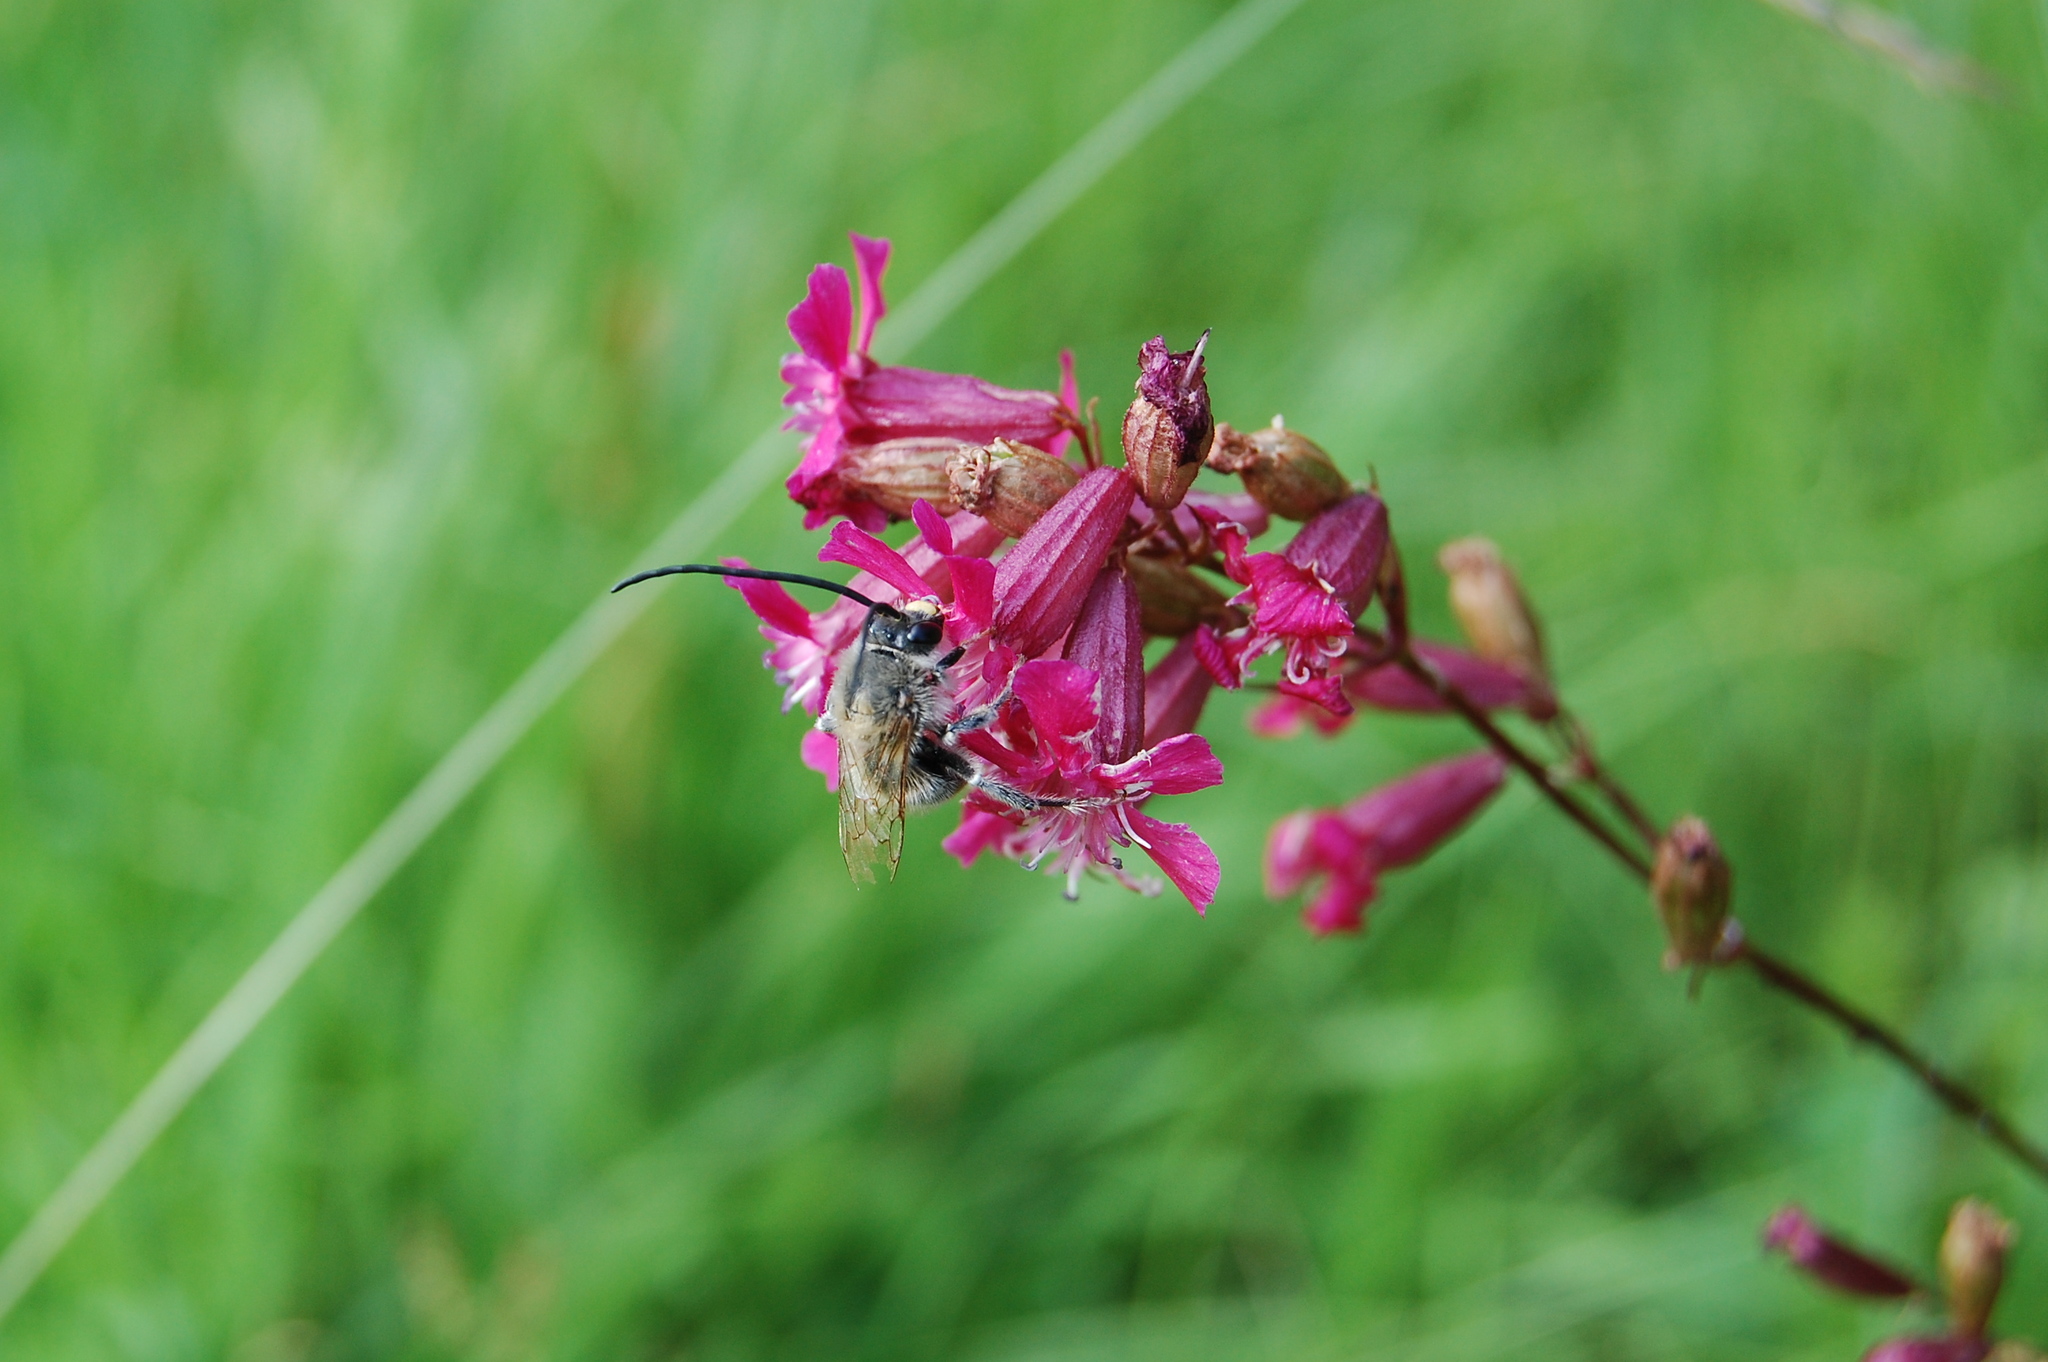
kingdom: Plantae
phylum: Tracheophyta
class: Magnoliopsida
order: Caryophyllales
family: Caryophyllaceae
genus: Viscaria
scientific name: Viscaria vulgaris
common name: Clammy campion
